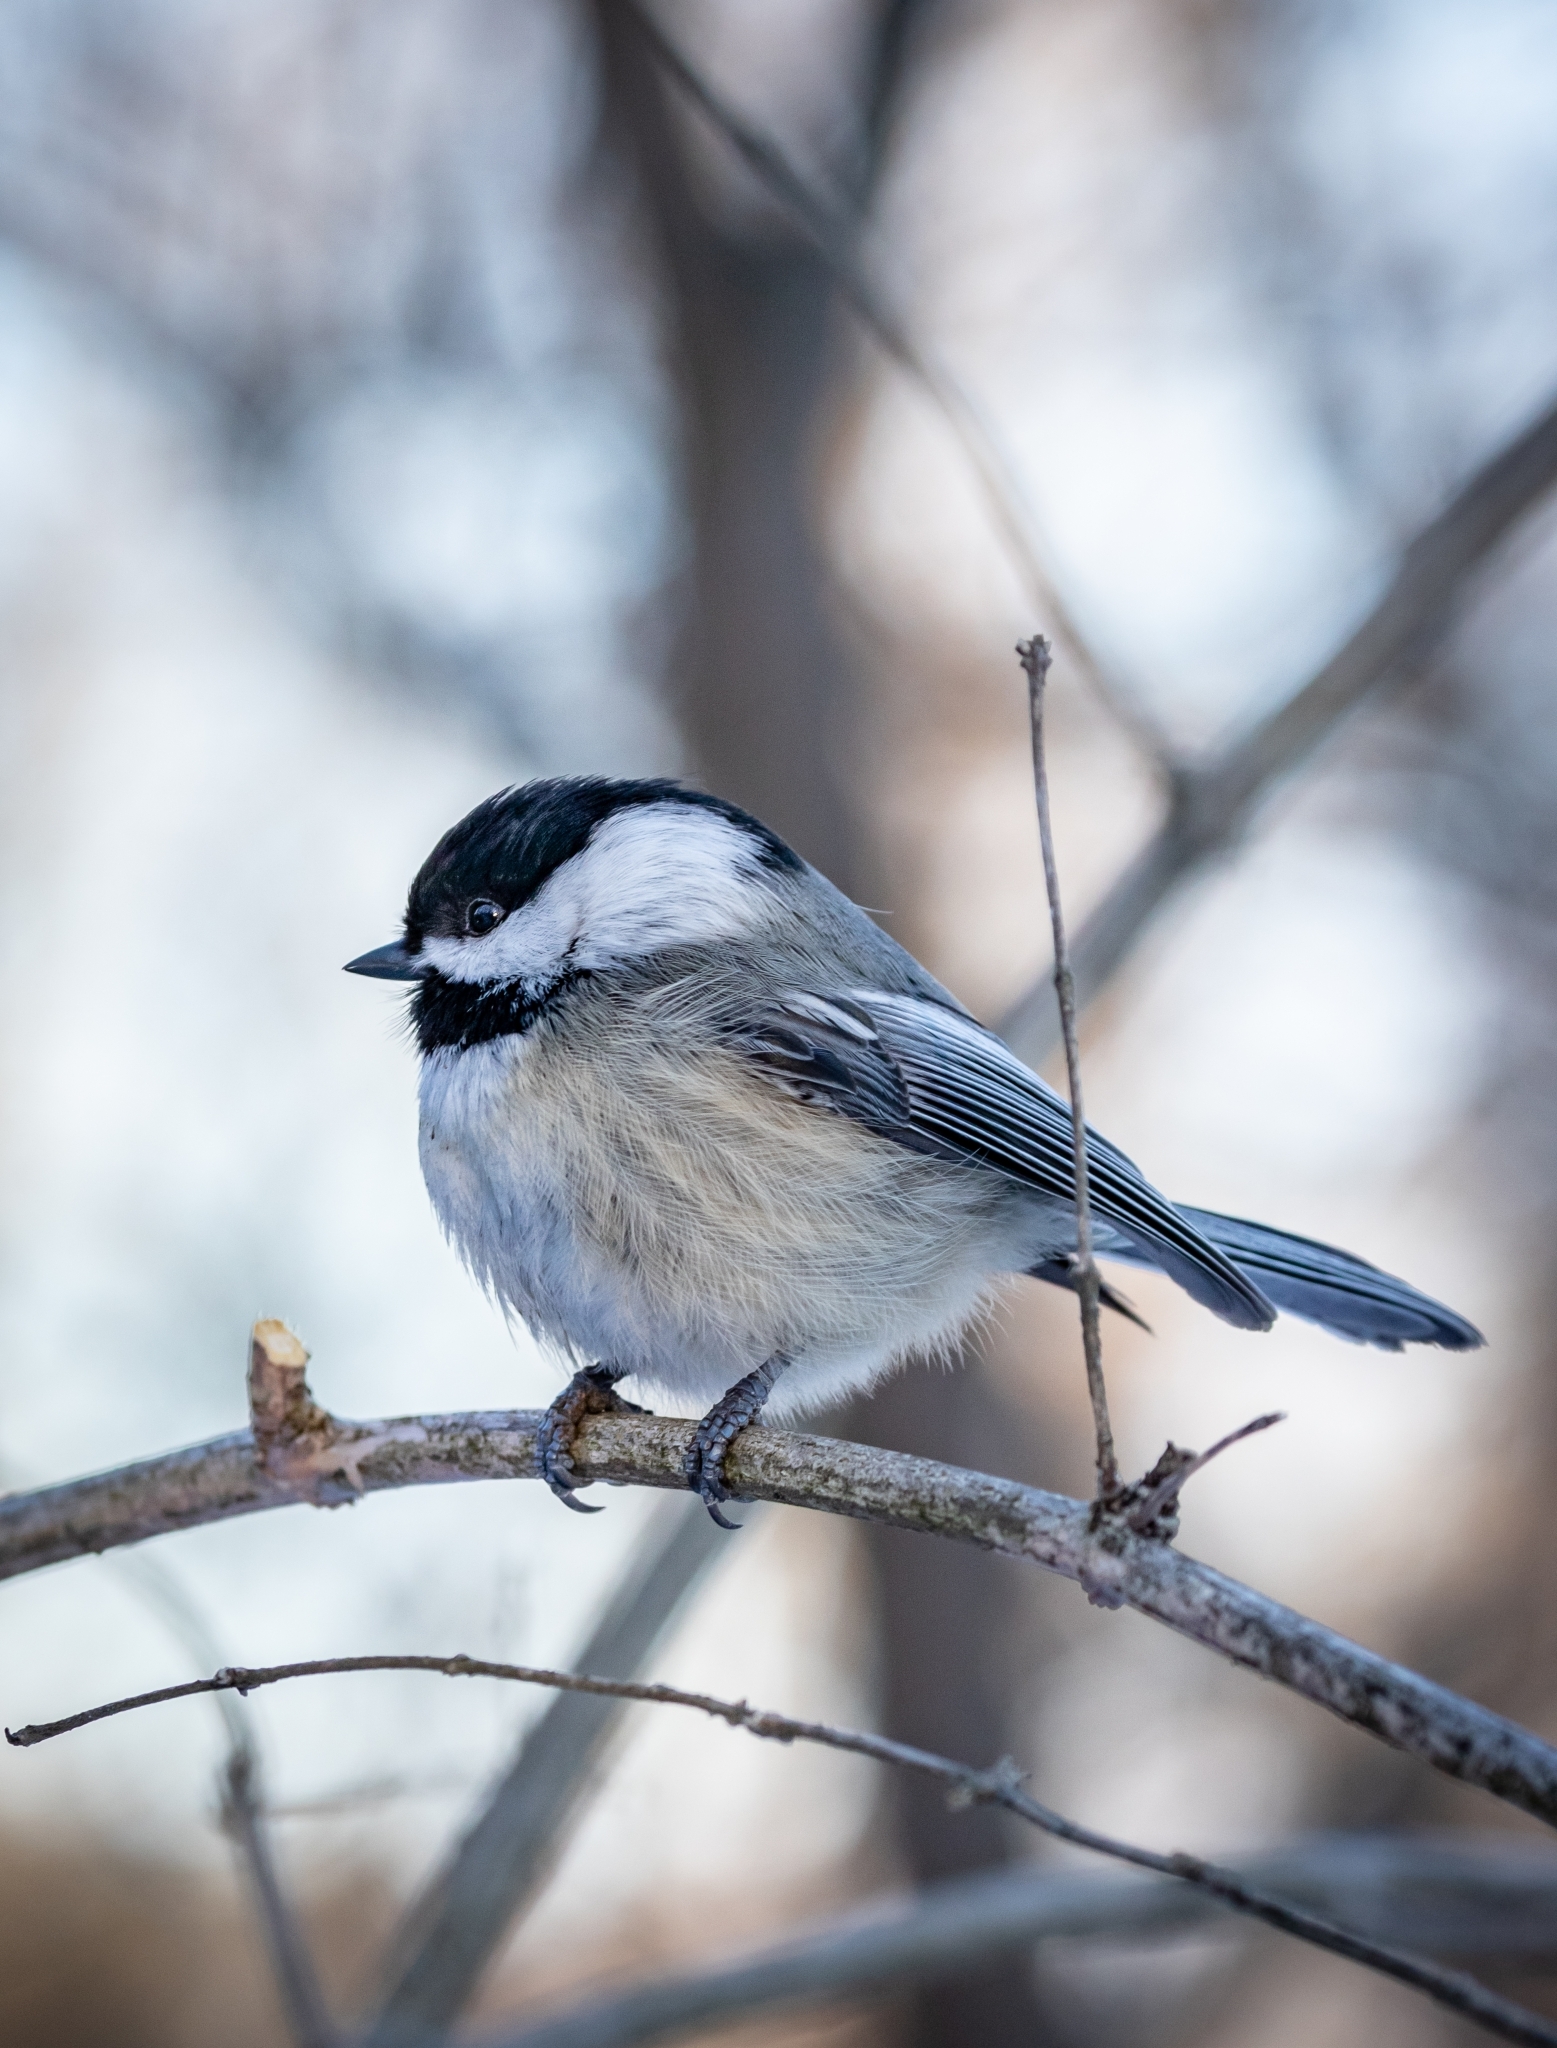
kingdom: Animalia
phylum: Chordata
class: Aves
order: Passeriformes
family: Paridae
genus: Poecile
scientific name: Poecile atricapillus
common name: Black-capped chickadee
